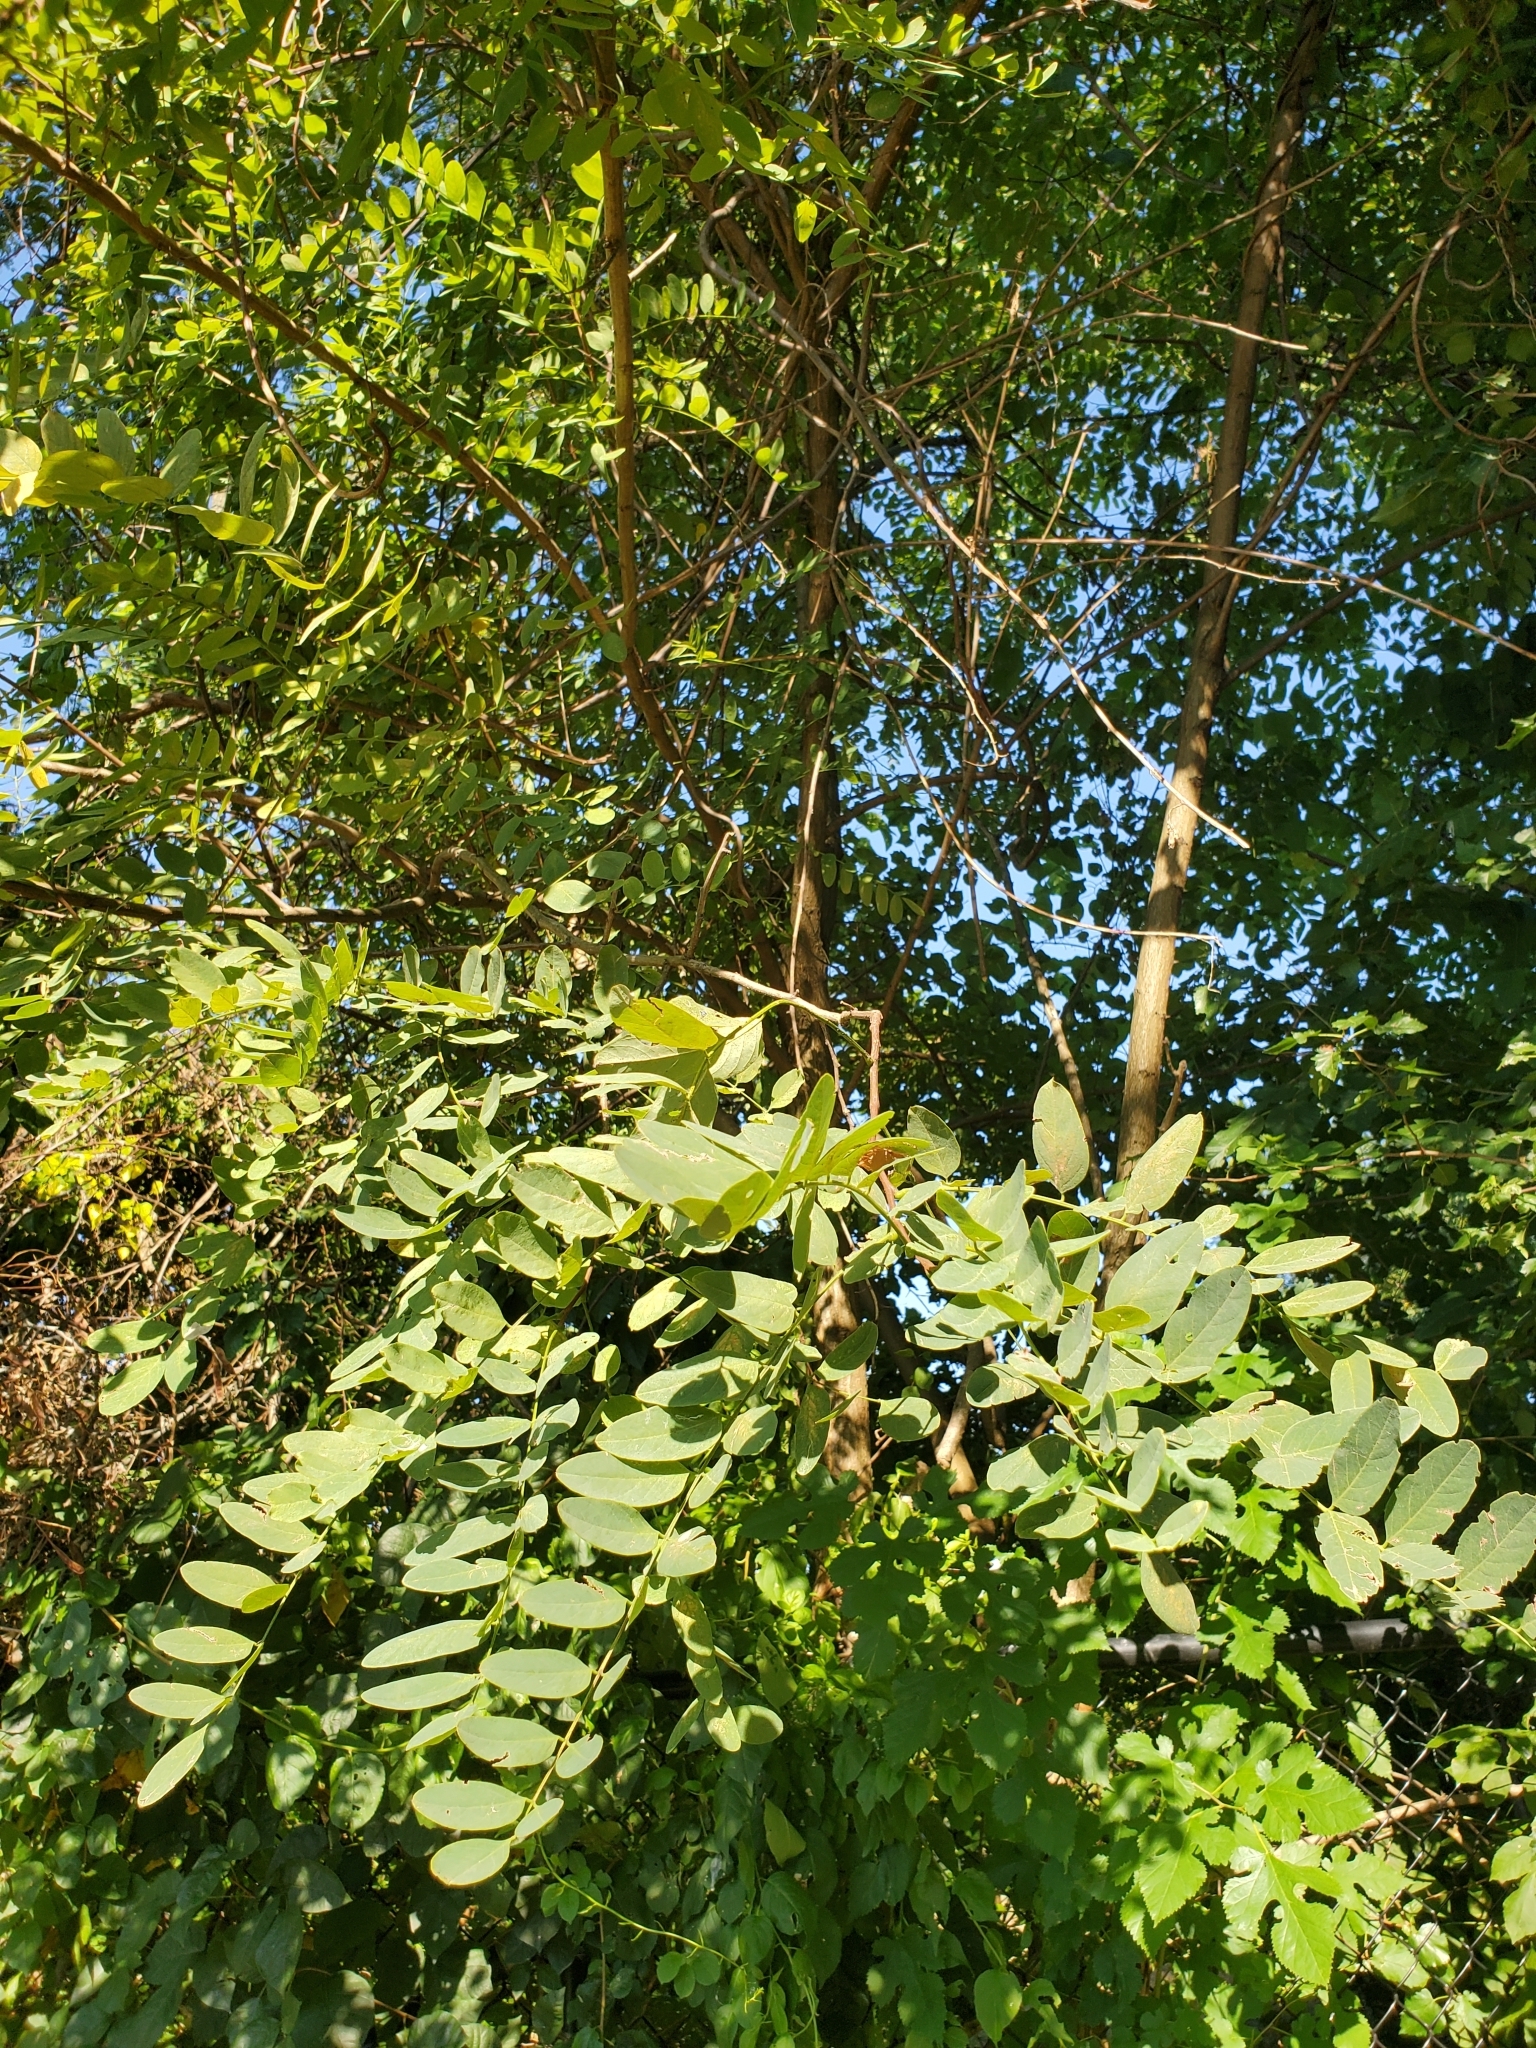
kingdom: Plantae
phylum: Tracheophyta
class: Magnoliopsida
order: Fabales
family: Fabaceae
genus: Robinia
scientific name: Robinia pseudoacacia
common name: Black locust
